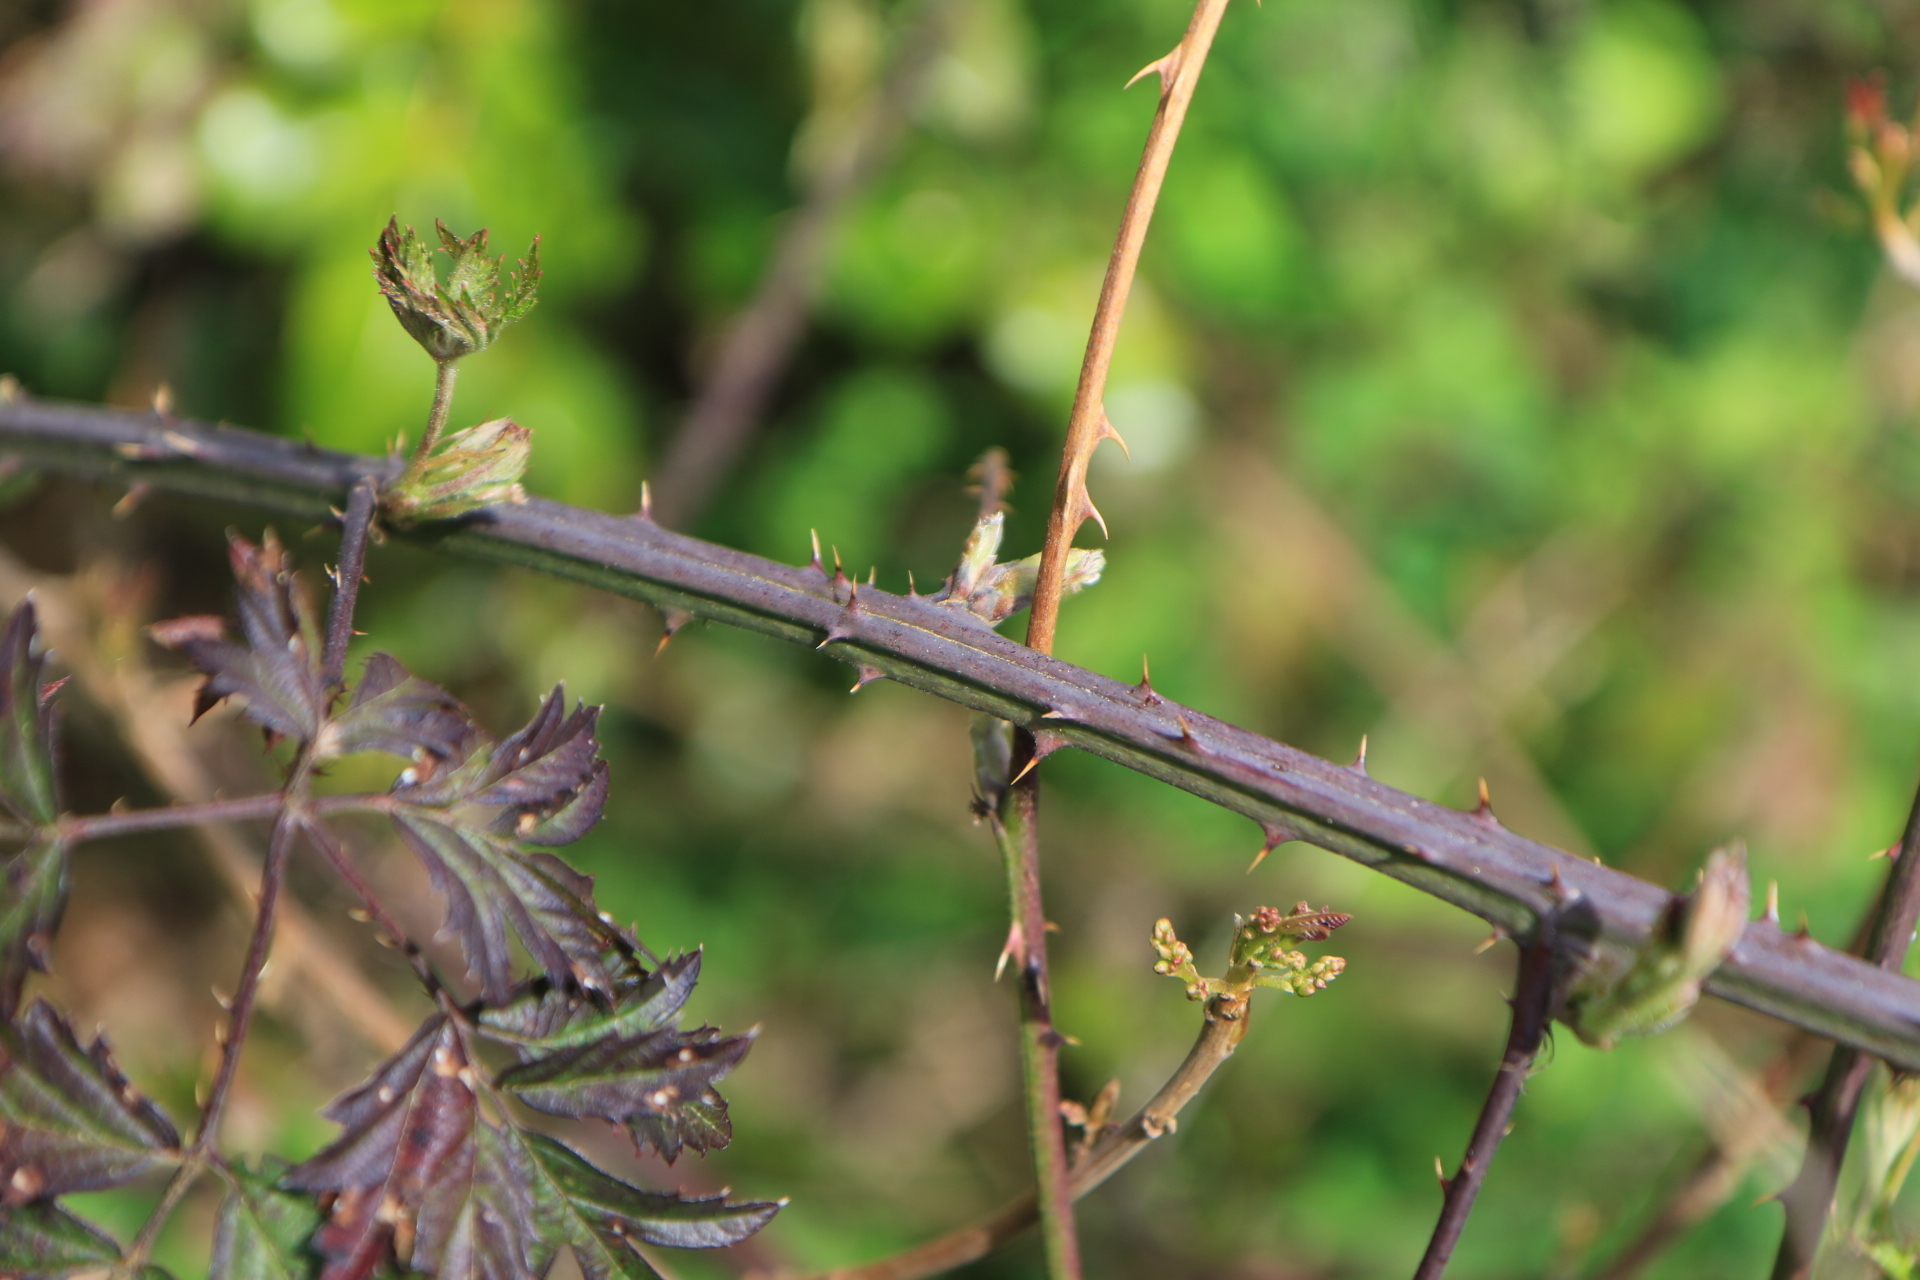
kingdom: Plantae
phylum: Tracheophyta
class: Magnoliopsida
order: Rosales
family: Rosaceae
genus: Rubus
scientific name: Rubus laciniatus
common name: Evergreen blackberry
